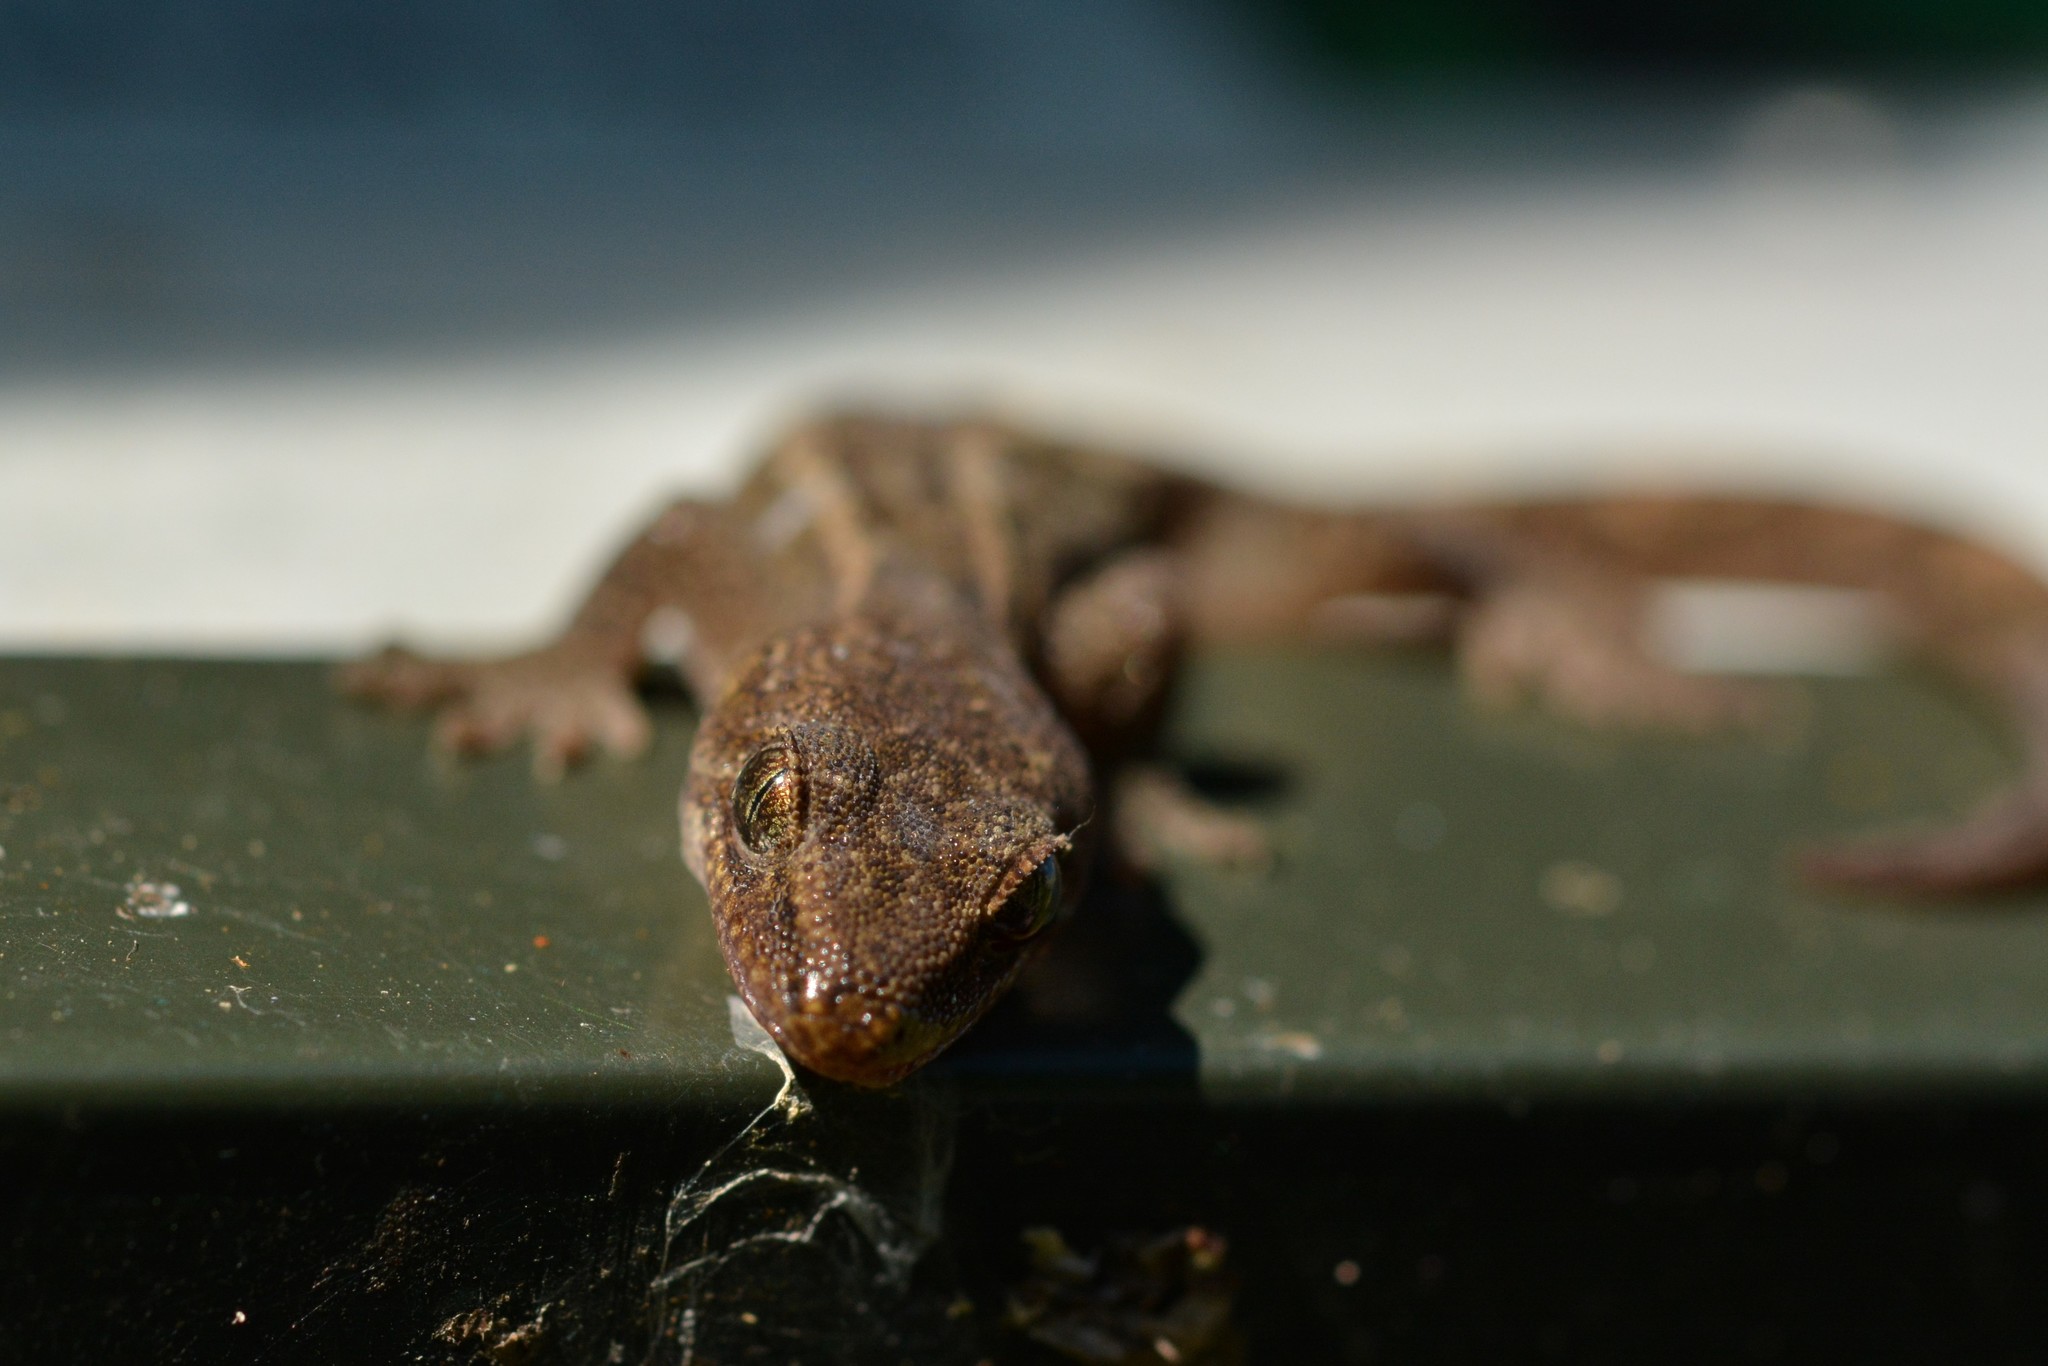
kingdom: Animalia
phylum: Chordata
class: Squamata
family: Diplodactylidae
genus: Woodworthia
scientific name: Woodworthia maculata
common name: Raukawa gecko
